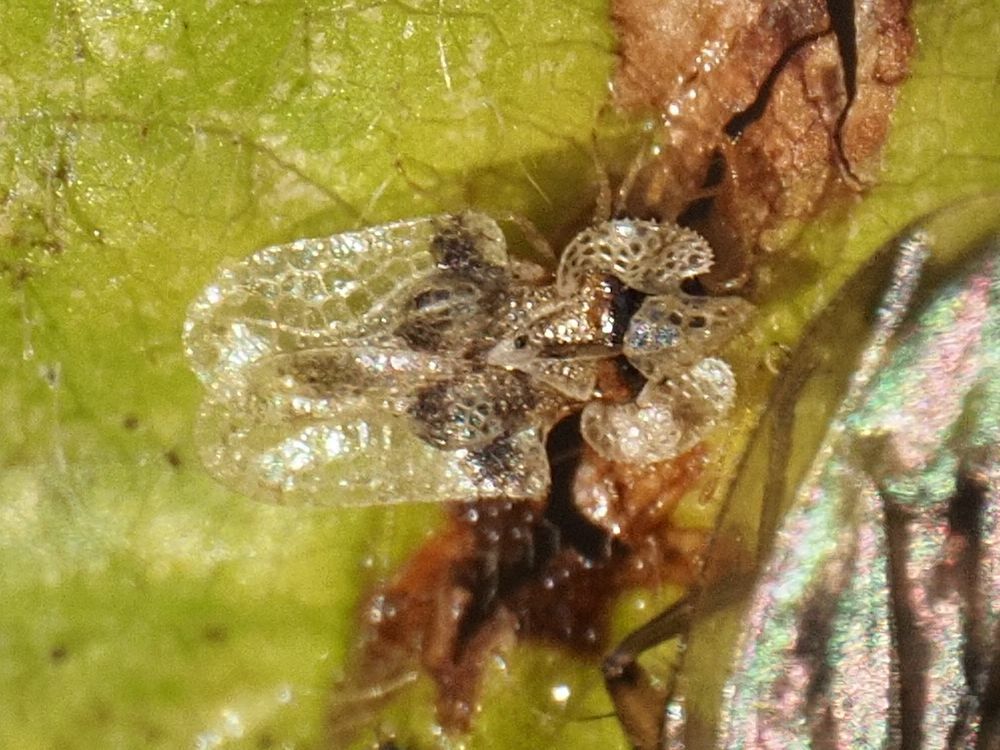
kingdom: Animalia
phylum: Arthropoda
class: Insecta
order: Hemiptera
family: Tingidae
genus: Corythucha
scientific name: Corythucha arcuata
